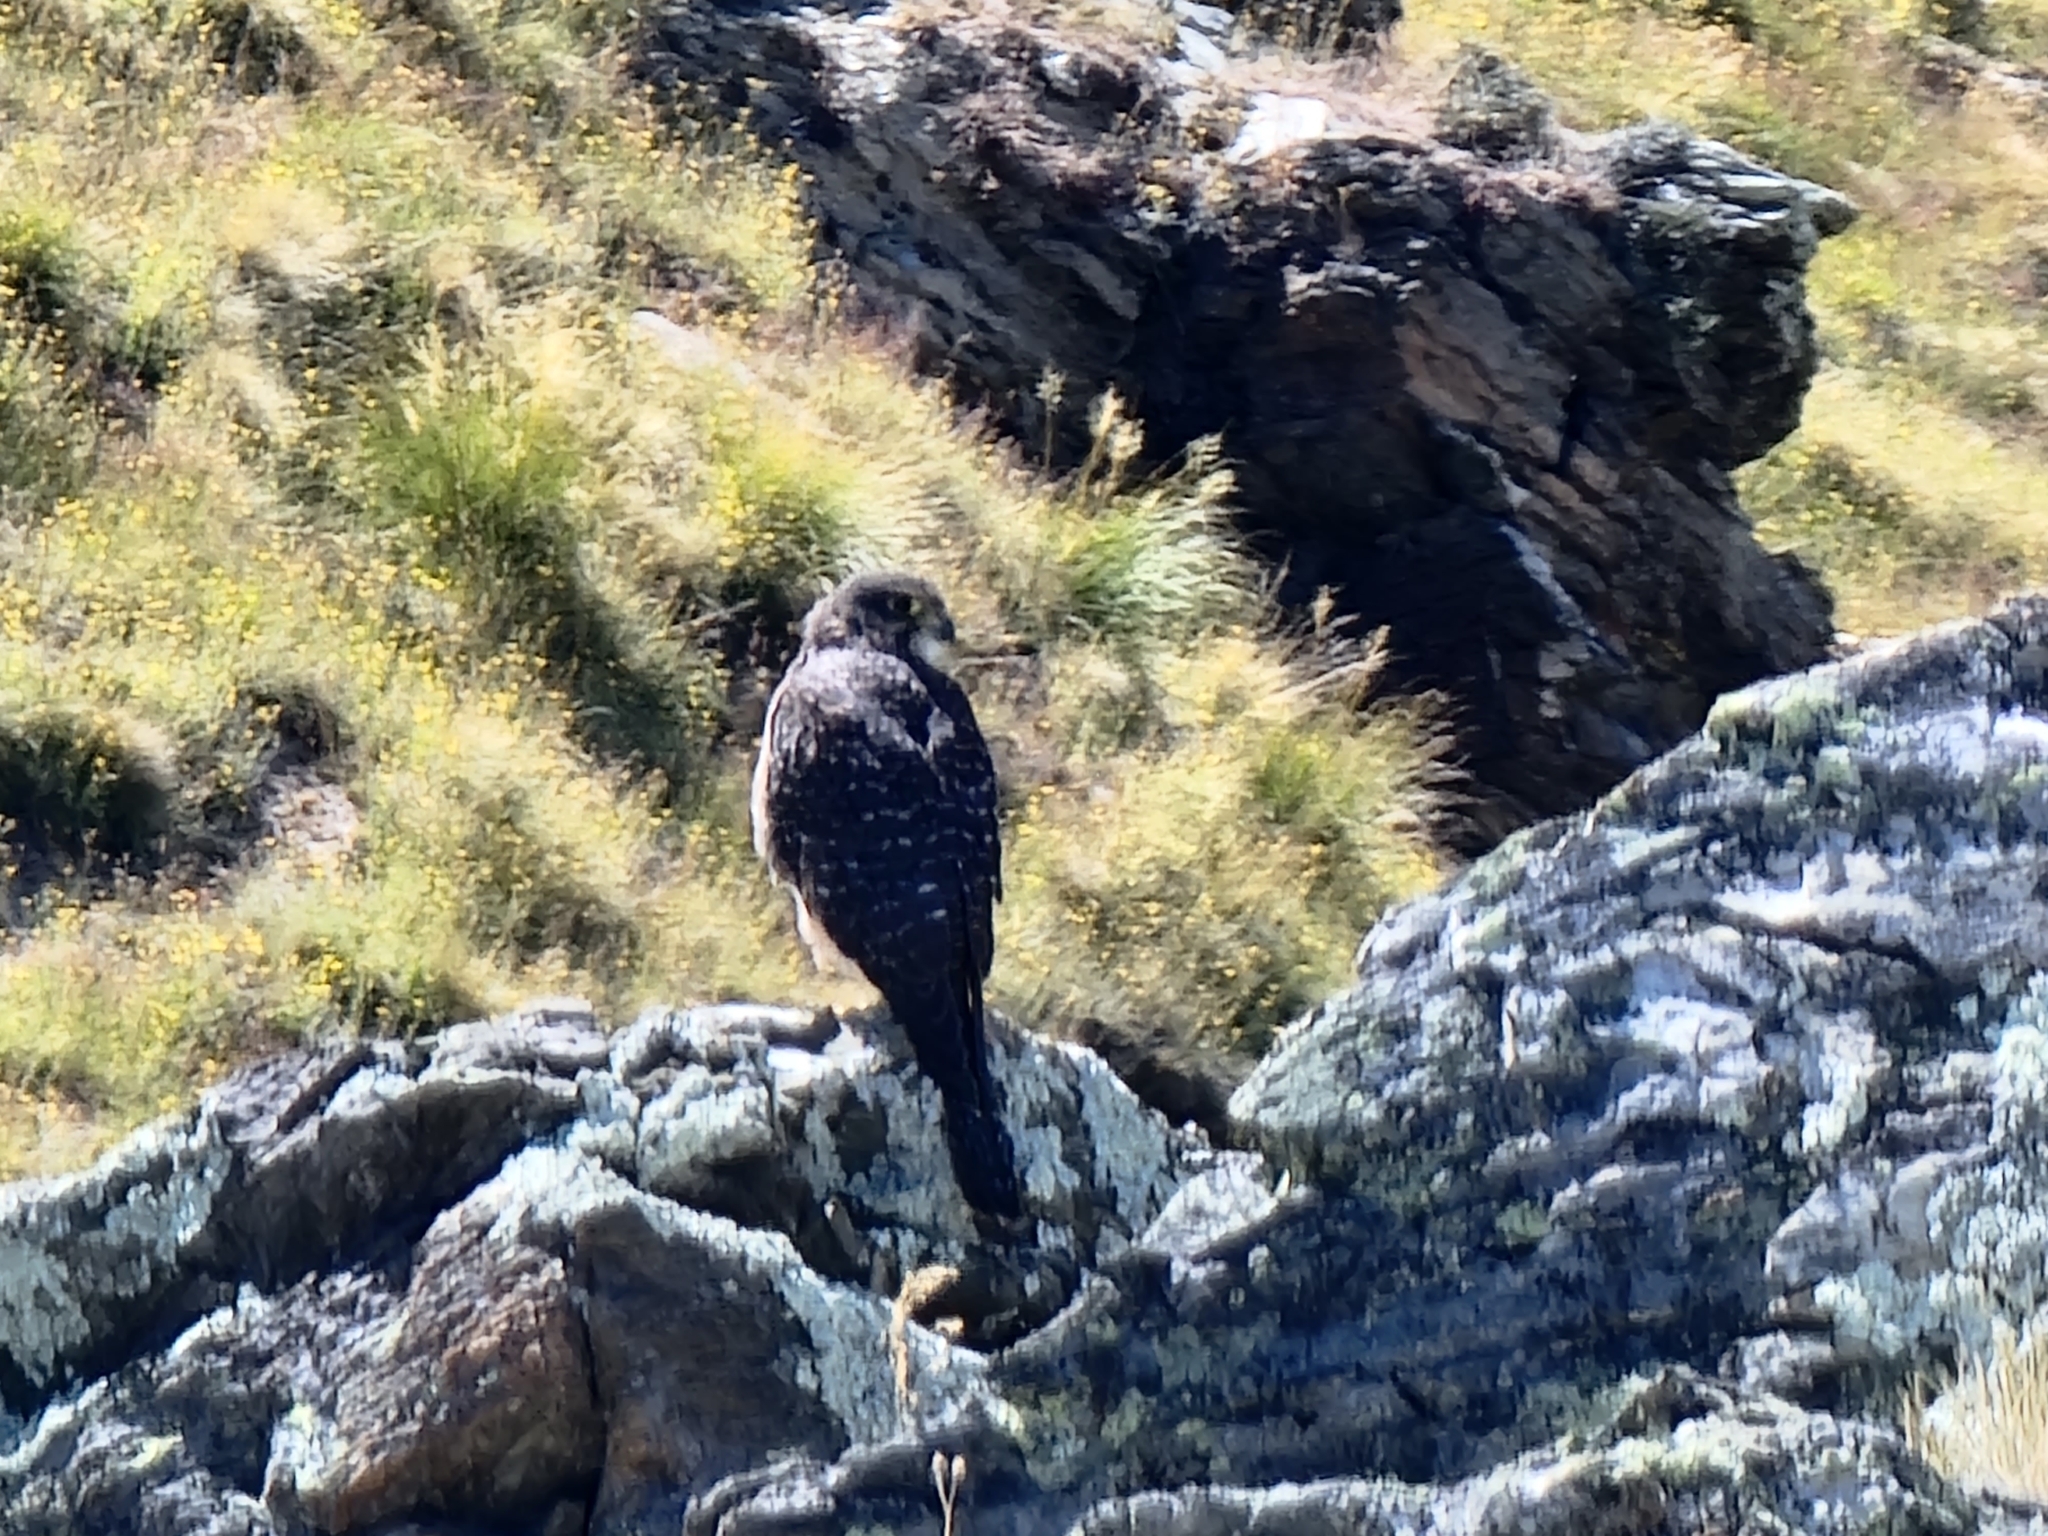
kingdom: Animalia
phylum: Chordata
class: Aves
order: Falconiformes
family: Falconidae
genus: Falco
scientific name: Falco novaeseelandiae
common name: New zealand falcon
